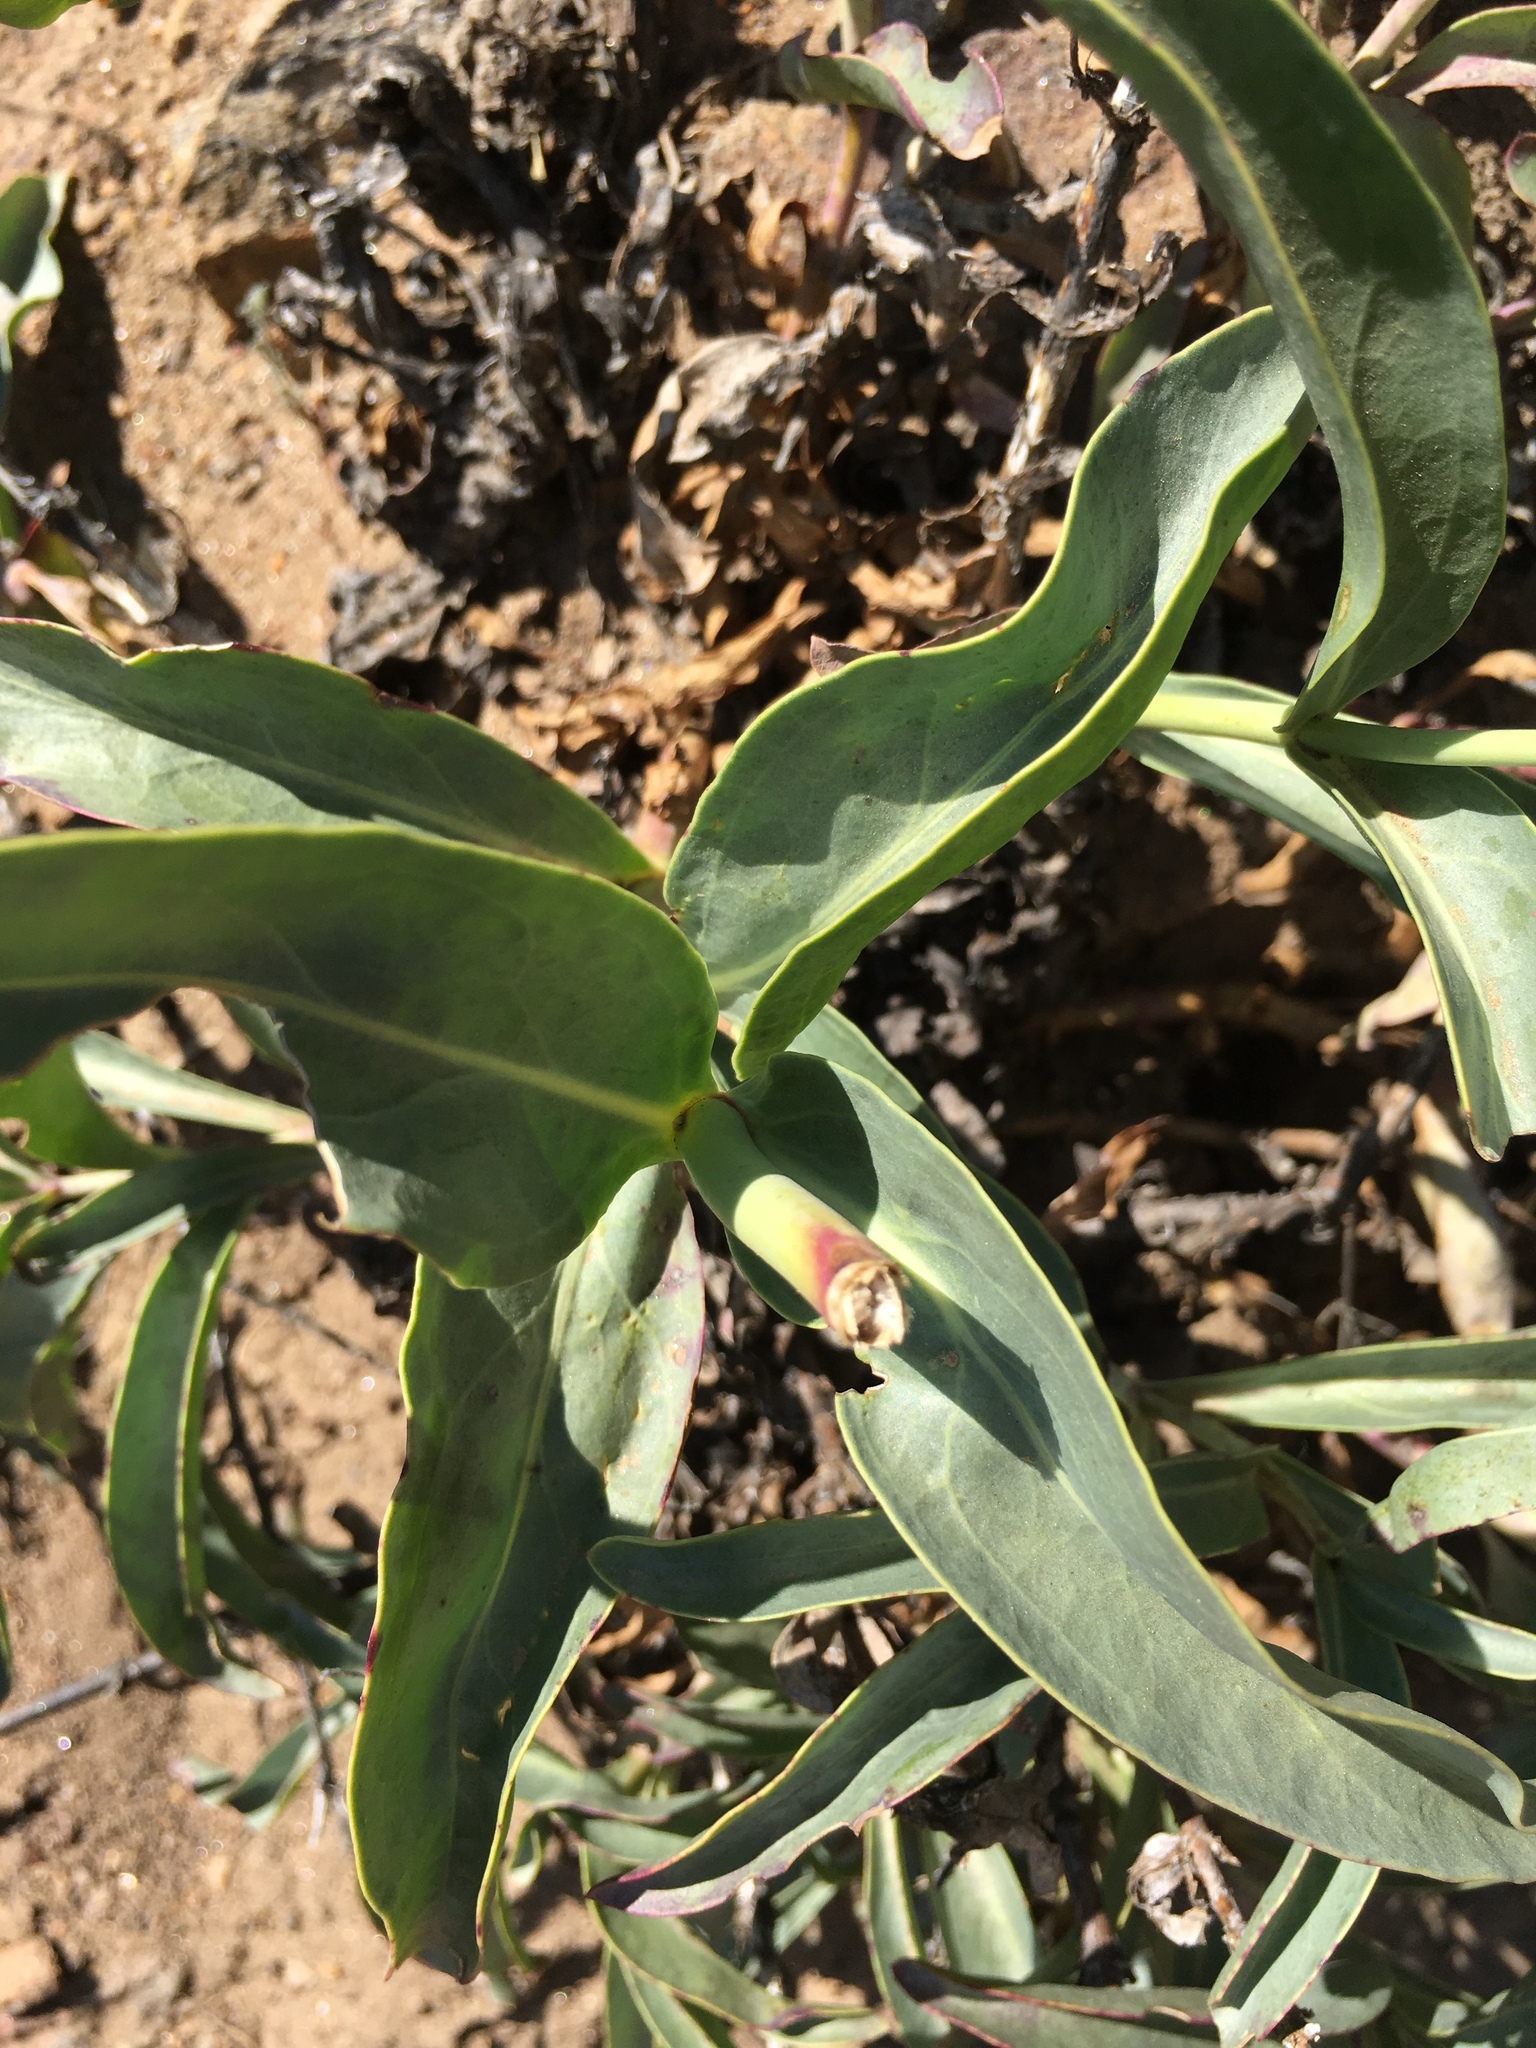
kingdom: Plantae
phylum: Tracheophyta
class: Magnoliopsida
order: Lamiales
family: Plantaginaceae
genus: Penstemon
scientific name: Penstemon centranthifolius
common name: Scarlet bugler
